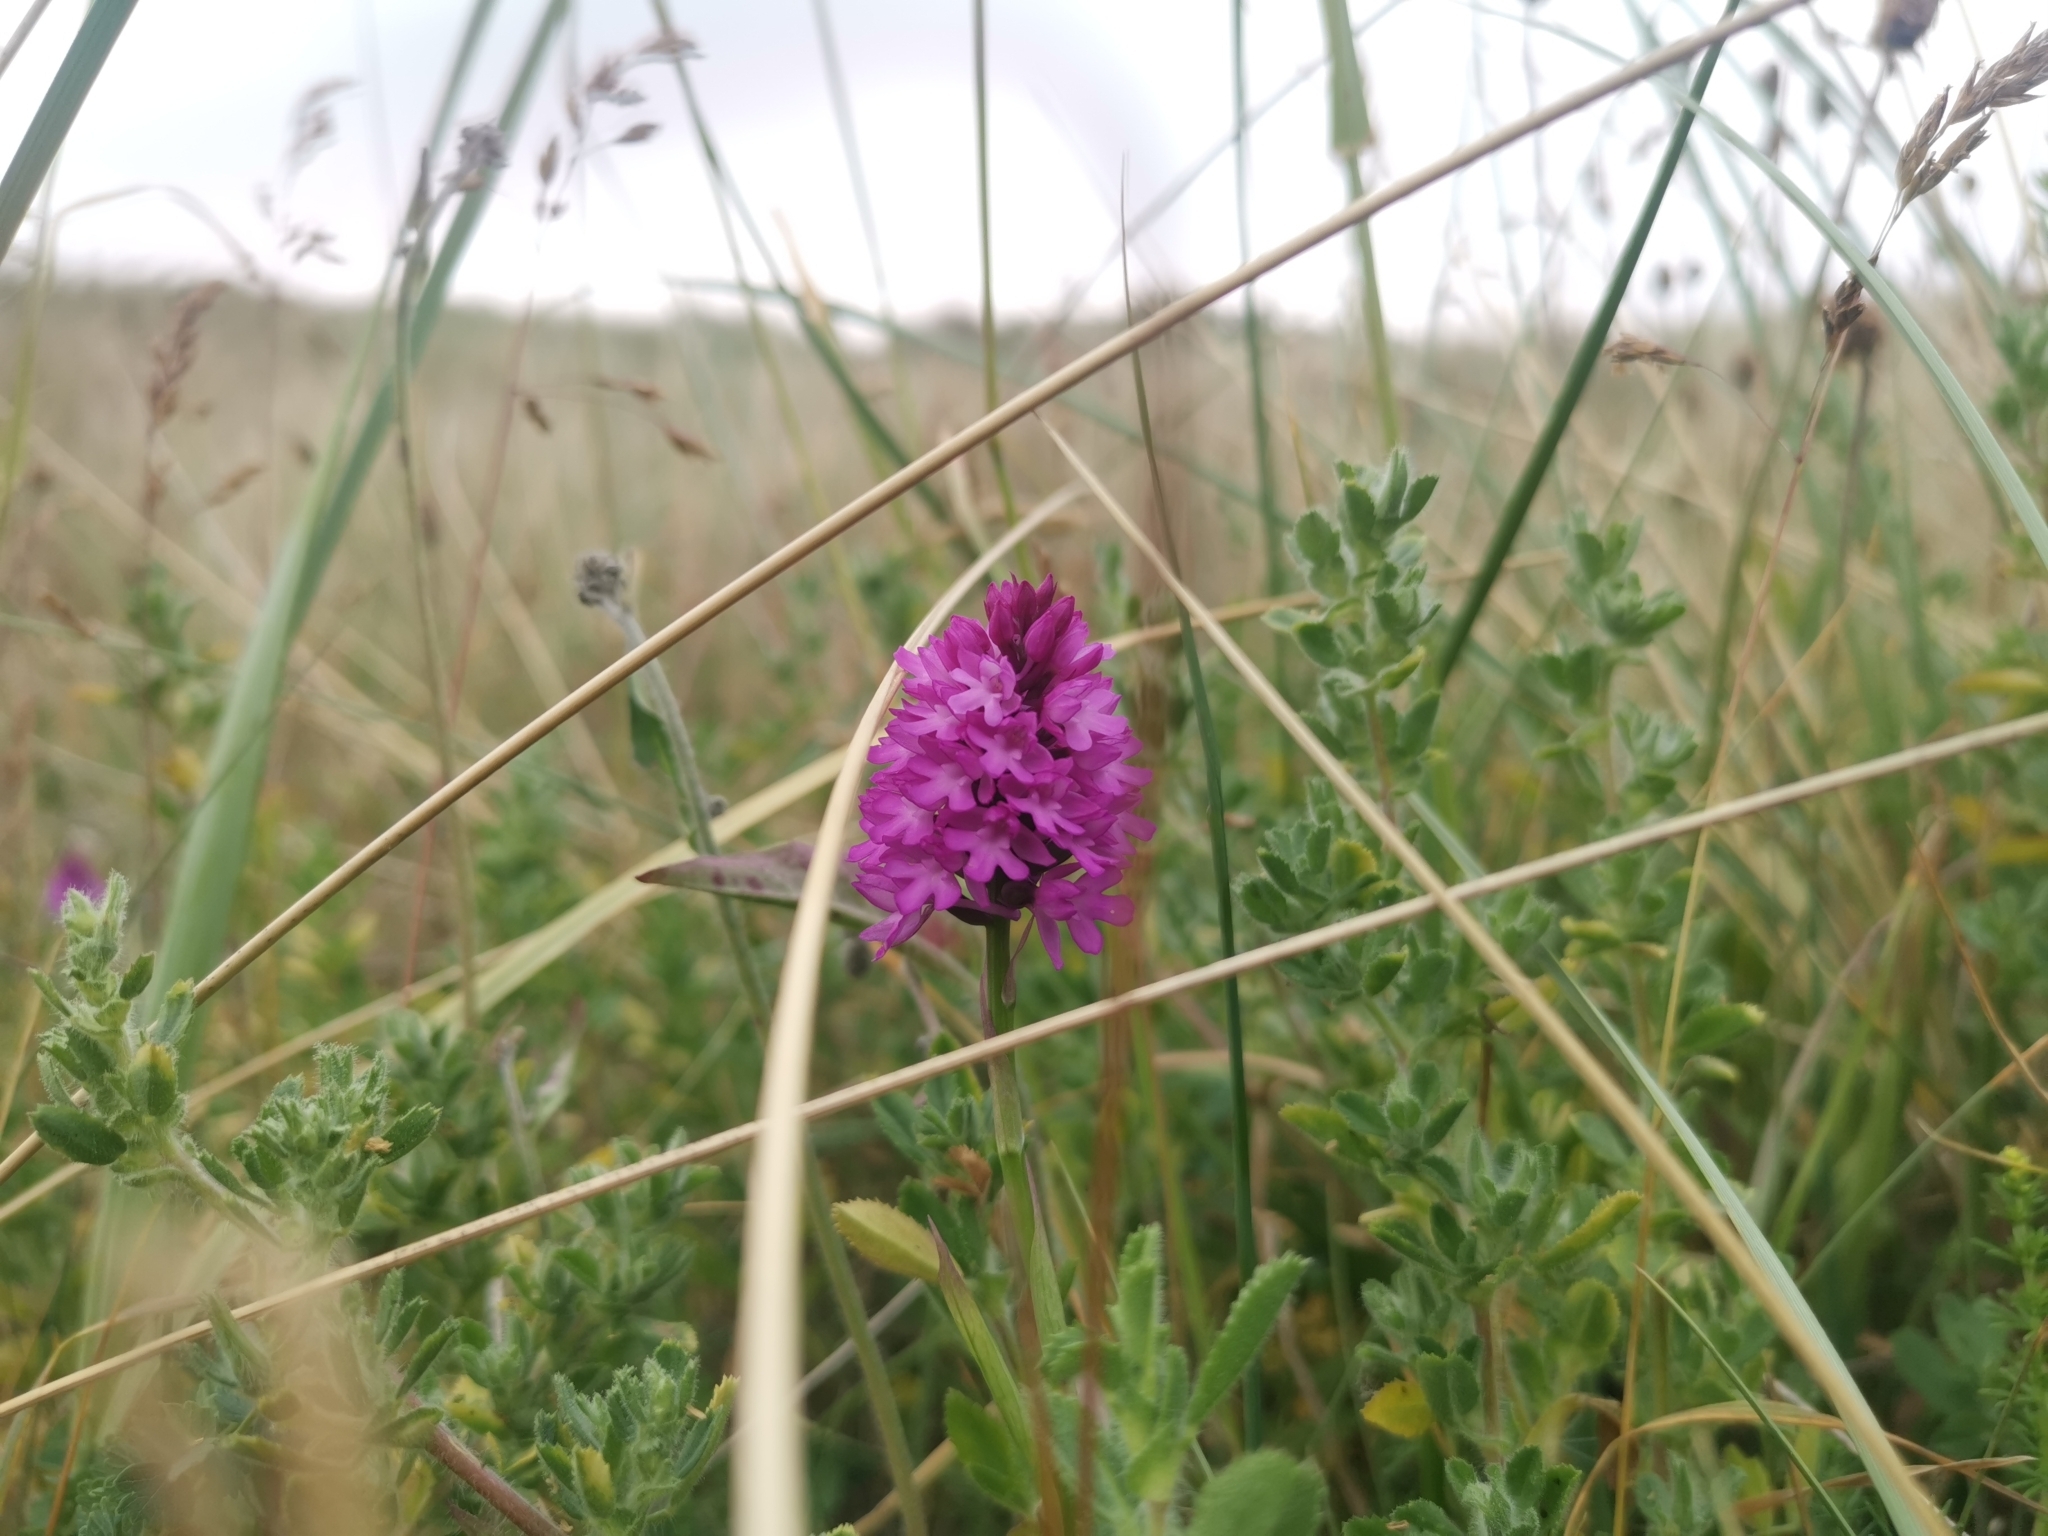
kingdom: Plantae
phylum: Tracheophyta
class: Liliopsida
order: Asparagales
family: Orchidaceae
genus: Anacamptis
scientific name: Anacamptis pyramidalis
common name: Pyramidal orchid
